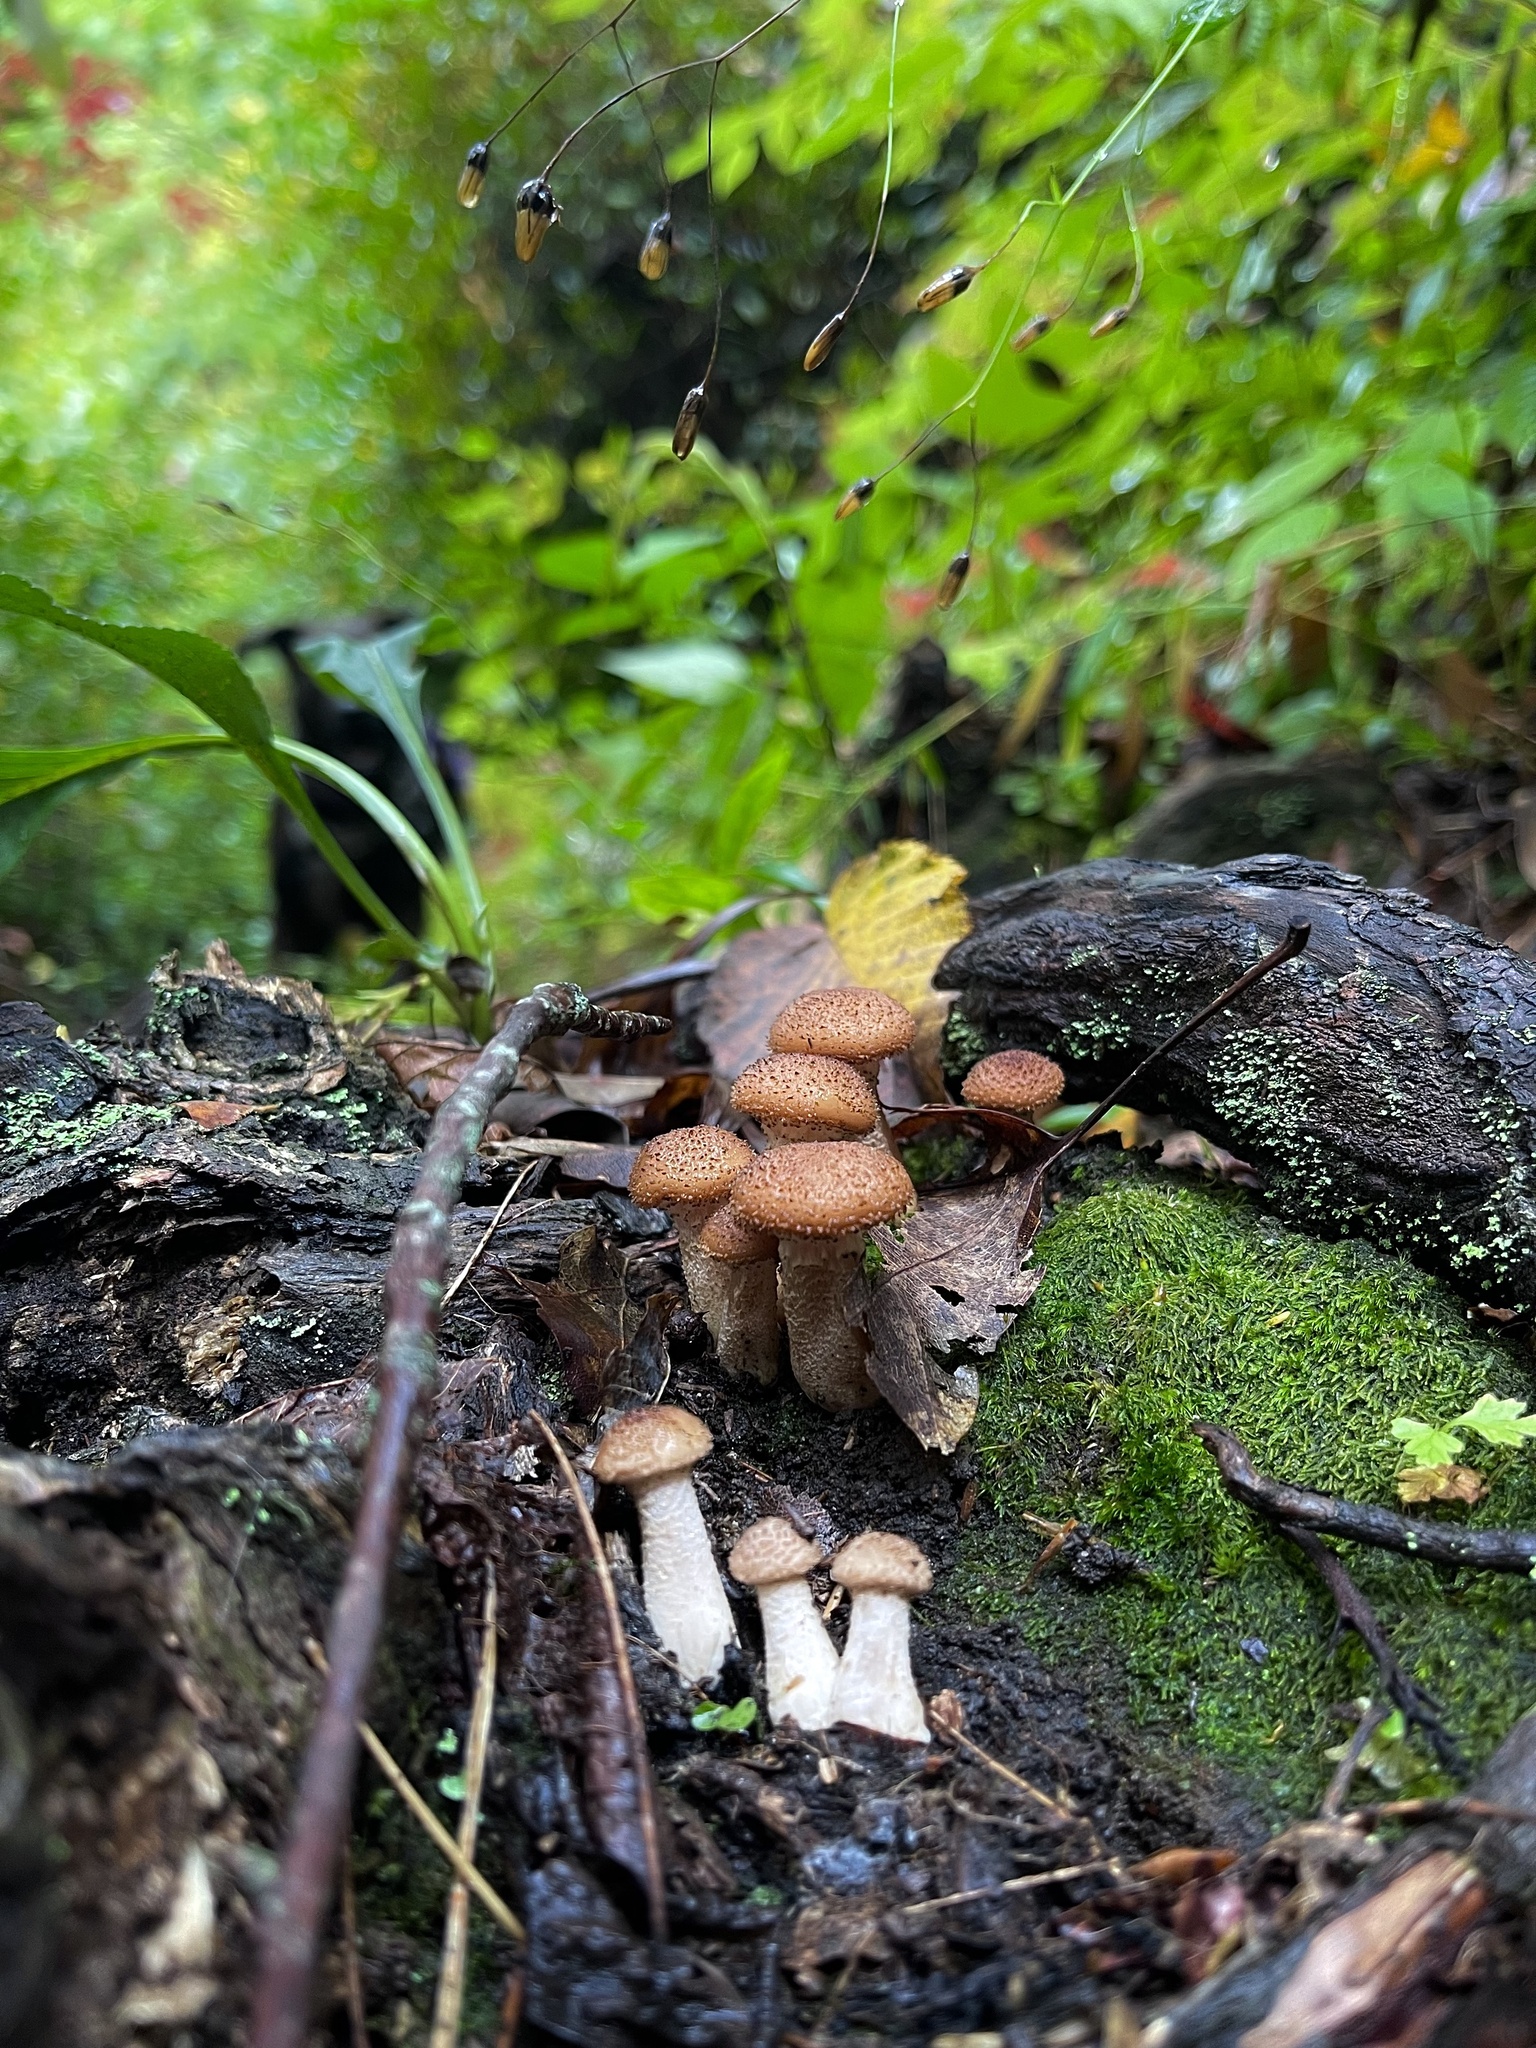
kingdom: Fungi
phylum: Basidiomycota
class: Agaricomycetes
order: Agaricales
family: Physalacriaceae
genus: Armillaria
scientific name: Armillaria gallica
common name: Bulbous honey fungus
